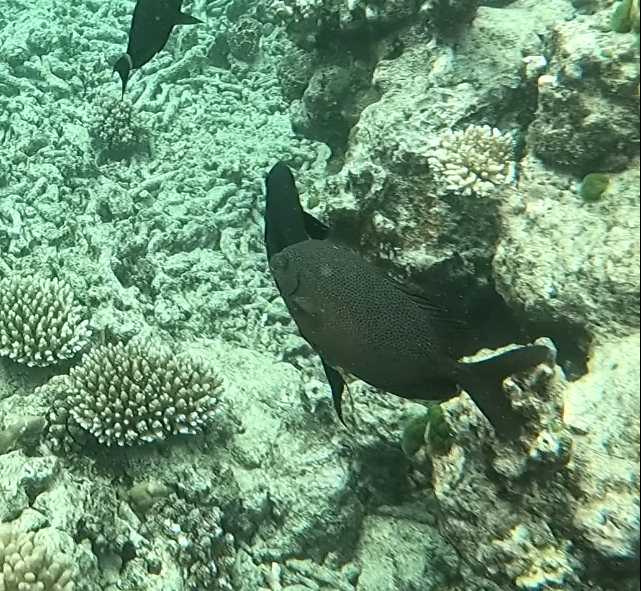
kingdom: Animalia
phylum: Chordata
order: Perciformes
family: Siganidae
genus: Siganus
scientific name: Siganus punctatus
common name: Gold-spotted rabbitfish
